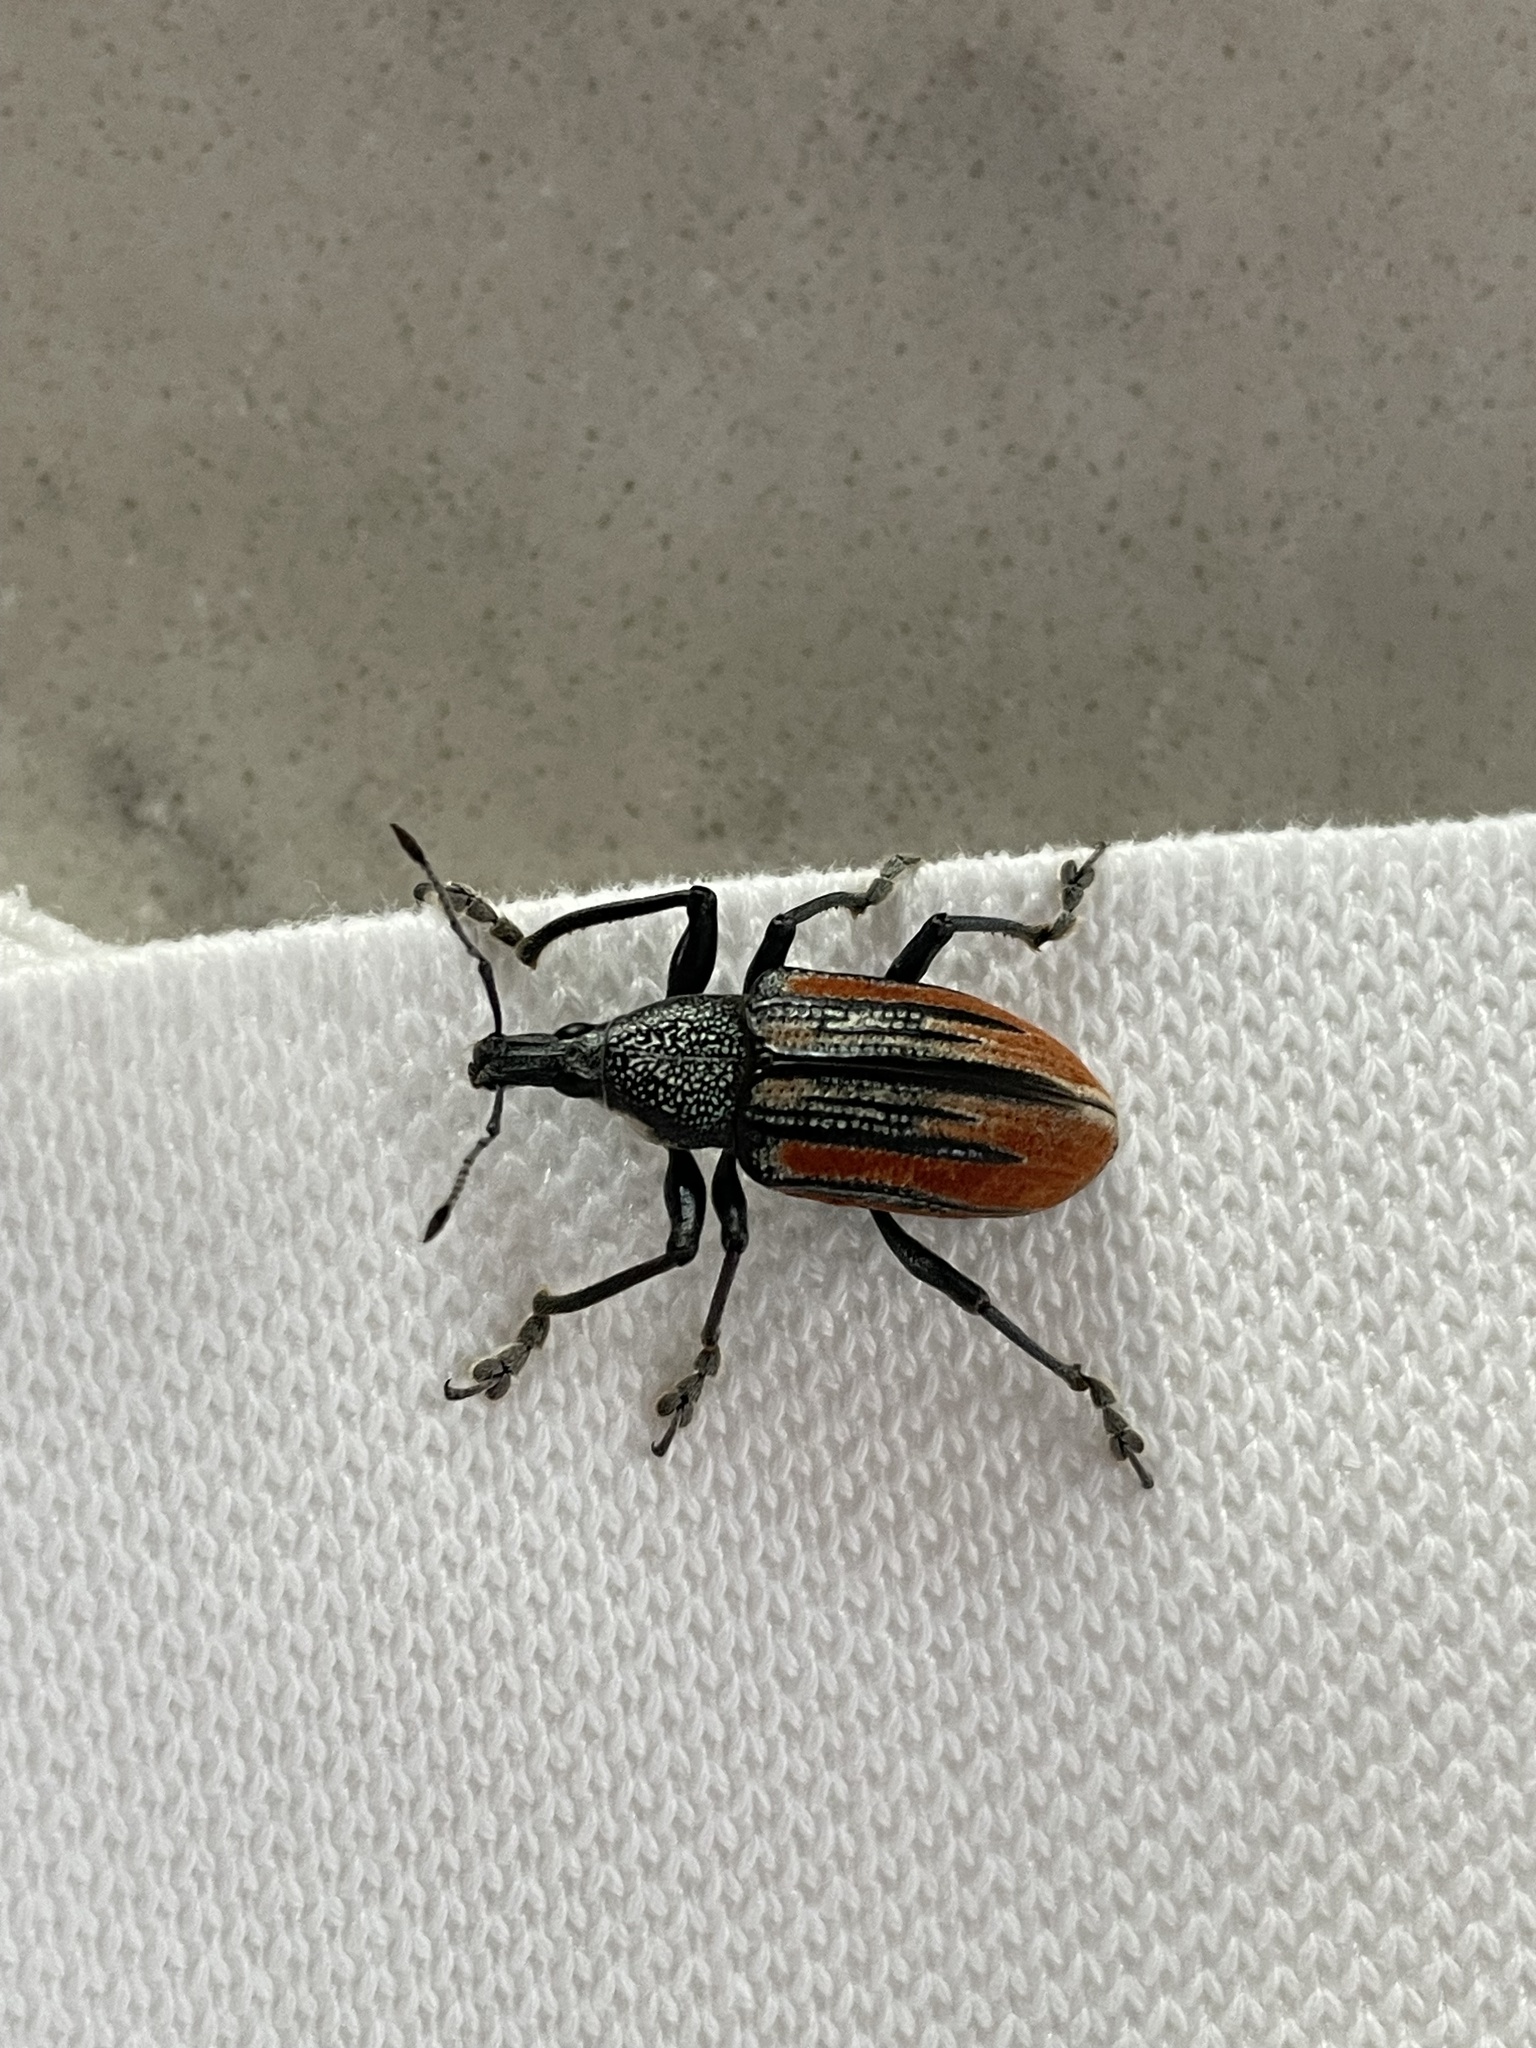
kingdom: Animalia
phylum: Arthropoda
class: Insecta
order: Coleoptera
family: Curculionidae
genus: Diaprepes
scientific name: Diaprepes abbreviatus
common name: Root weevil
